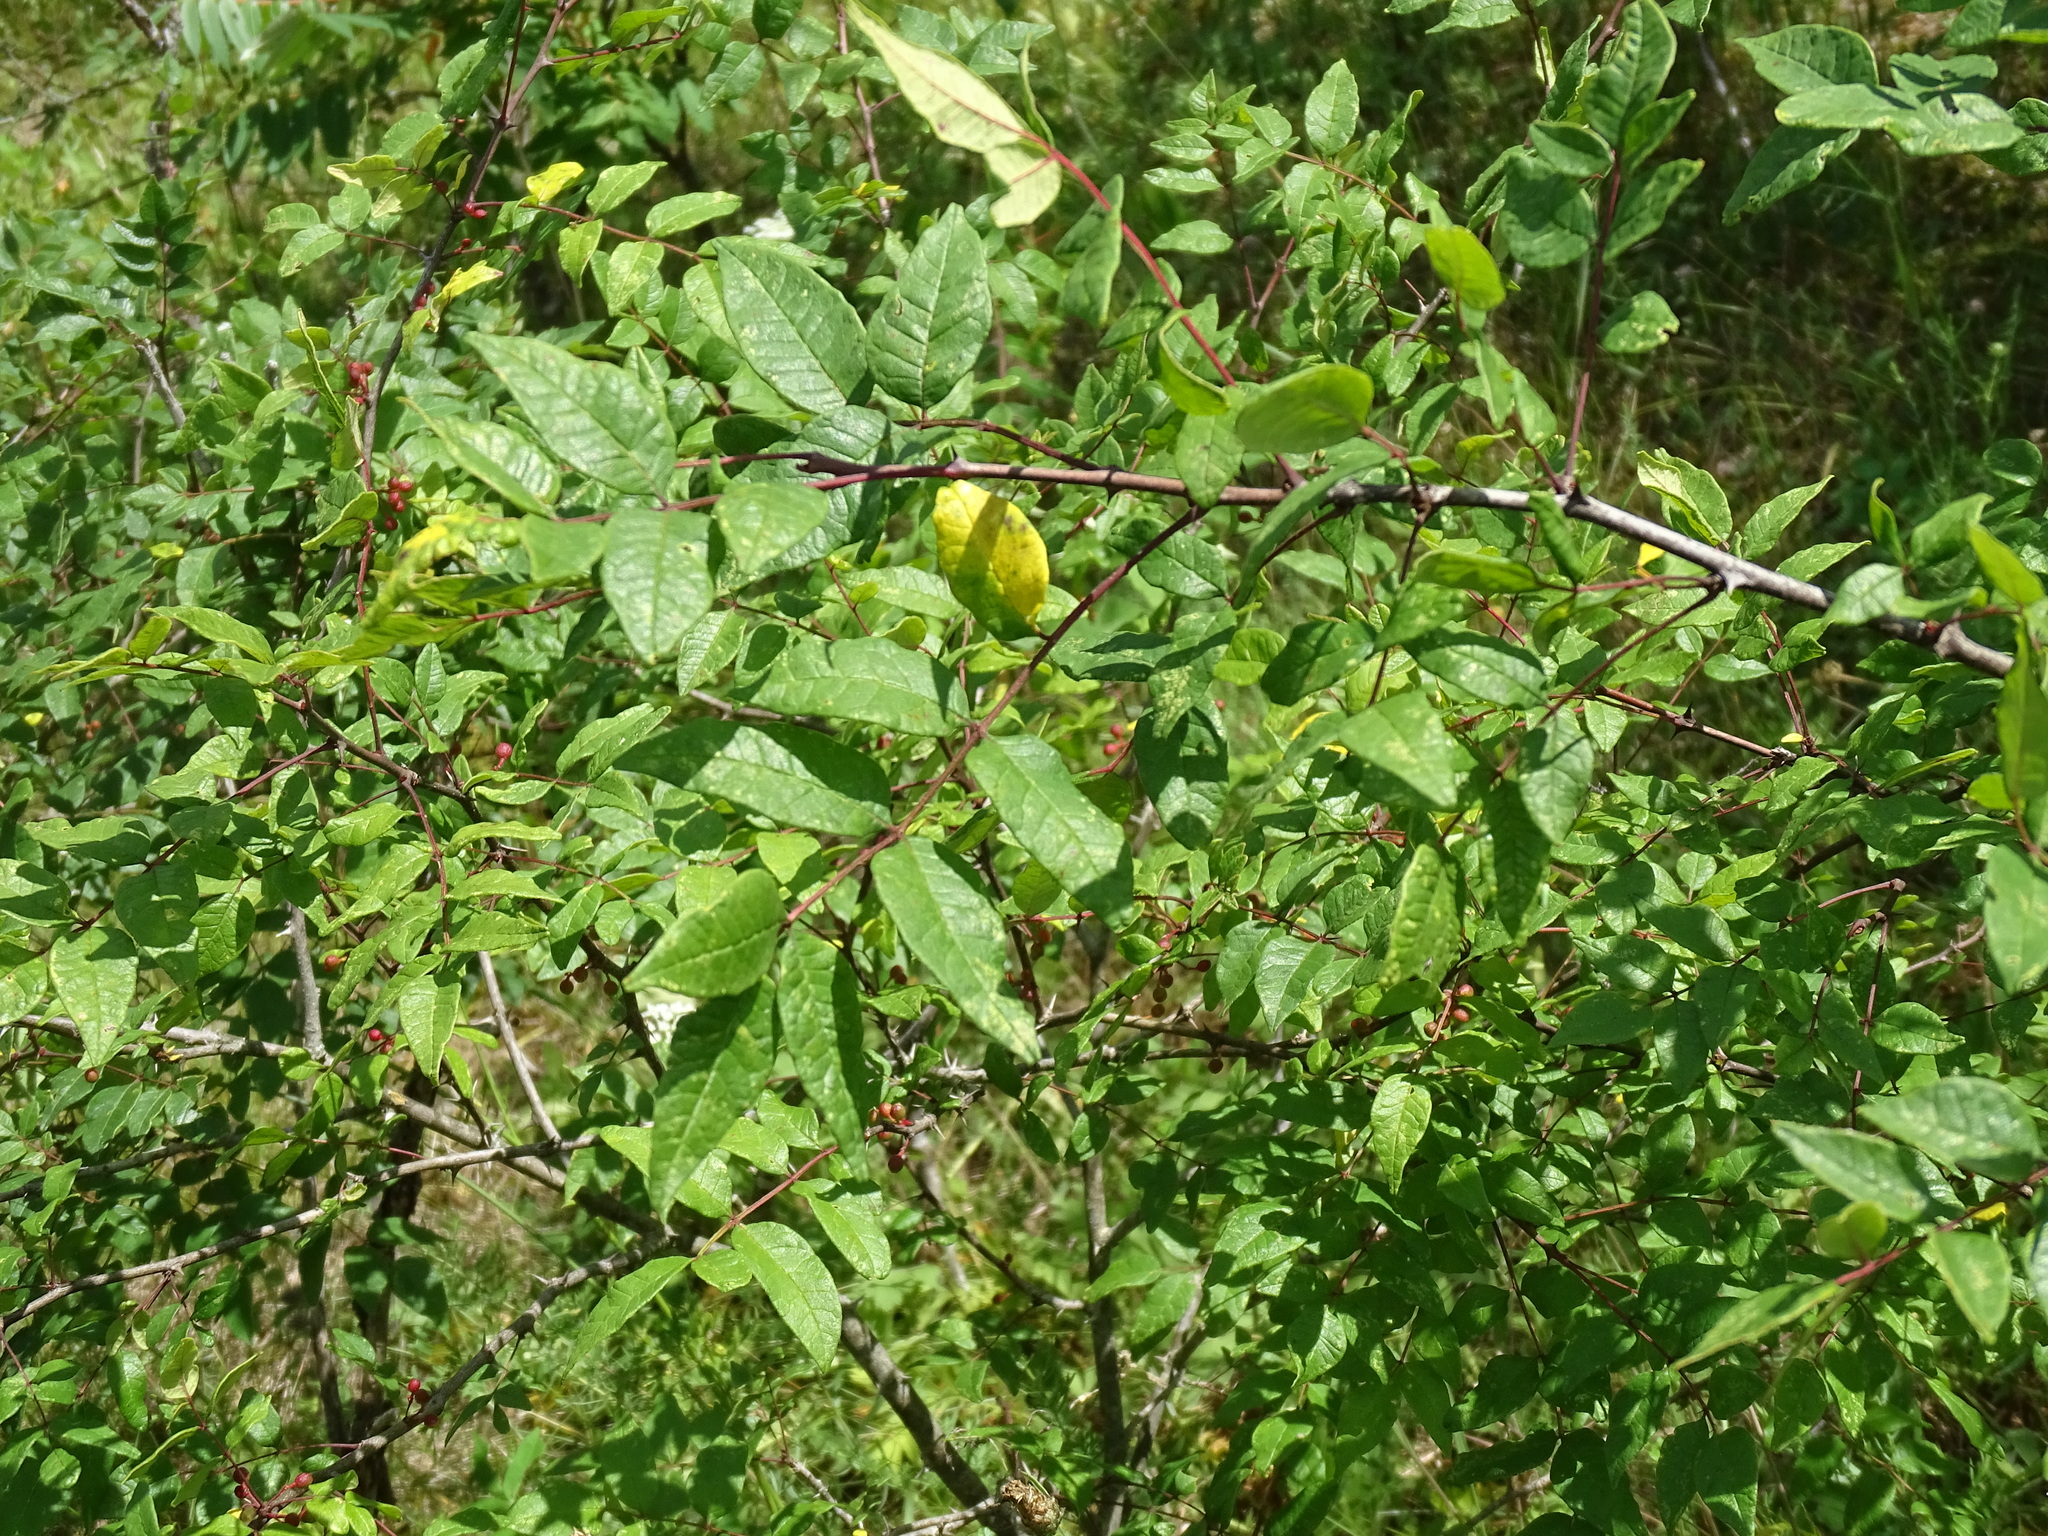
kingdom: Plantae
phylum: Tracheophyta
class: Magnoliopsida
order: Sapindales
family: Rutaceae
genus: Zanthoxylum
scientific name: Zanthoxylum americanum
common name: Northern prickly-ash
